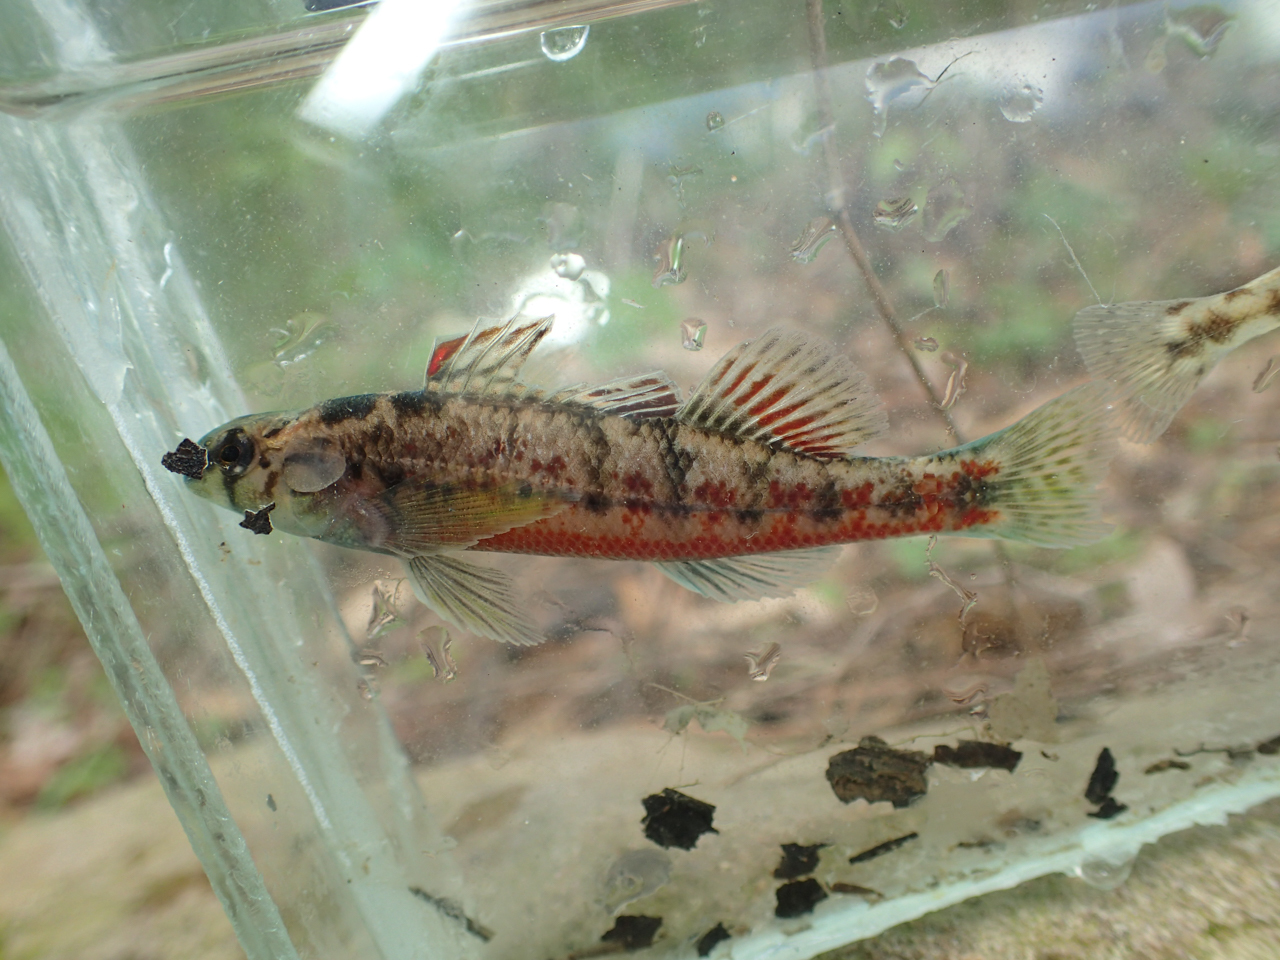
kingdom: Animalia
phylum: Chordata
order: Perciformes
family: Percidae
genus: Etheostoma
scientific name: Etheostoma chermocki
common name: Vermilion darter
